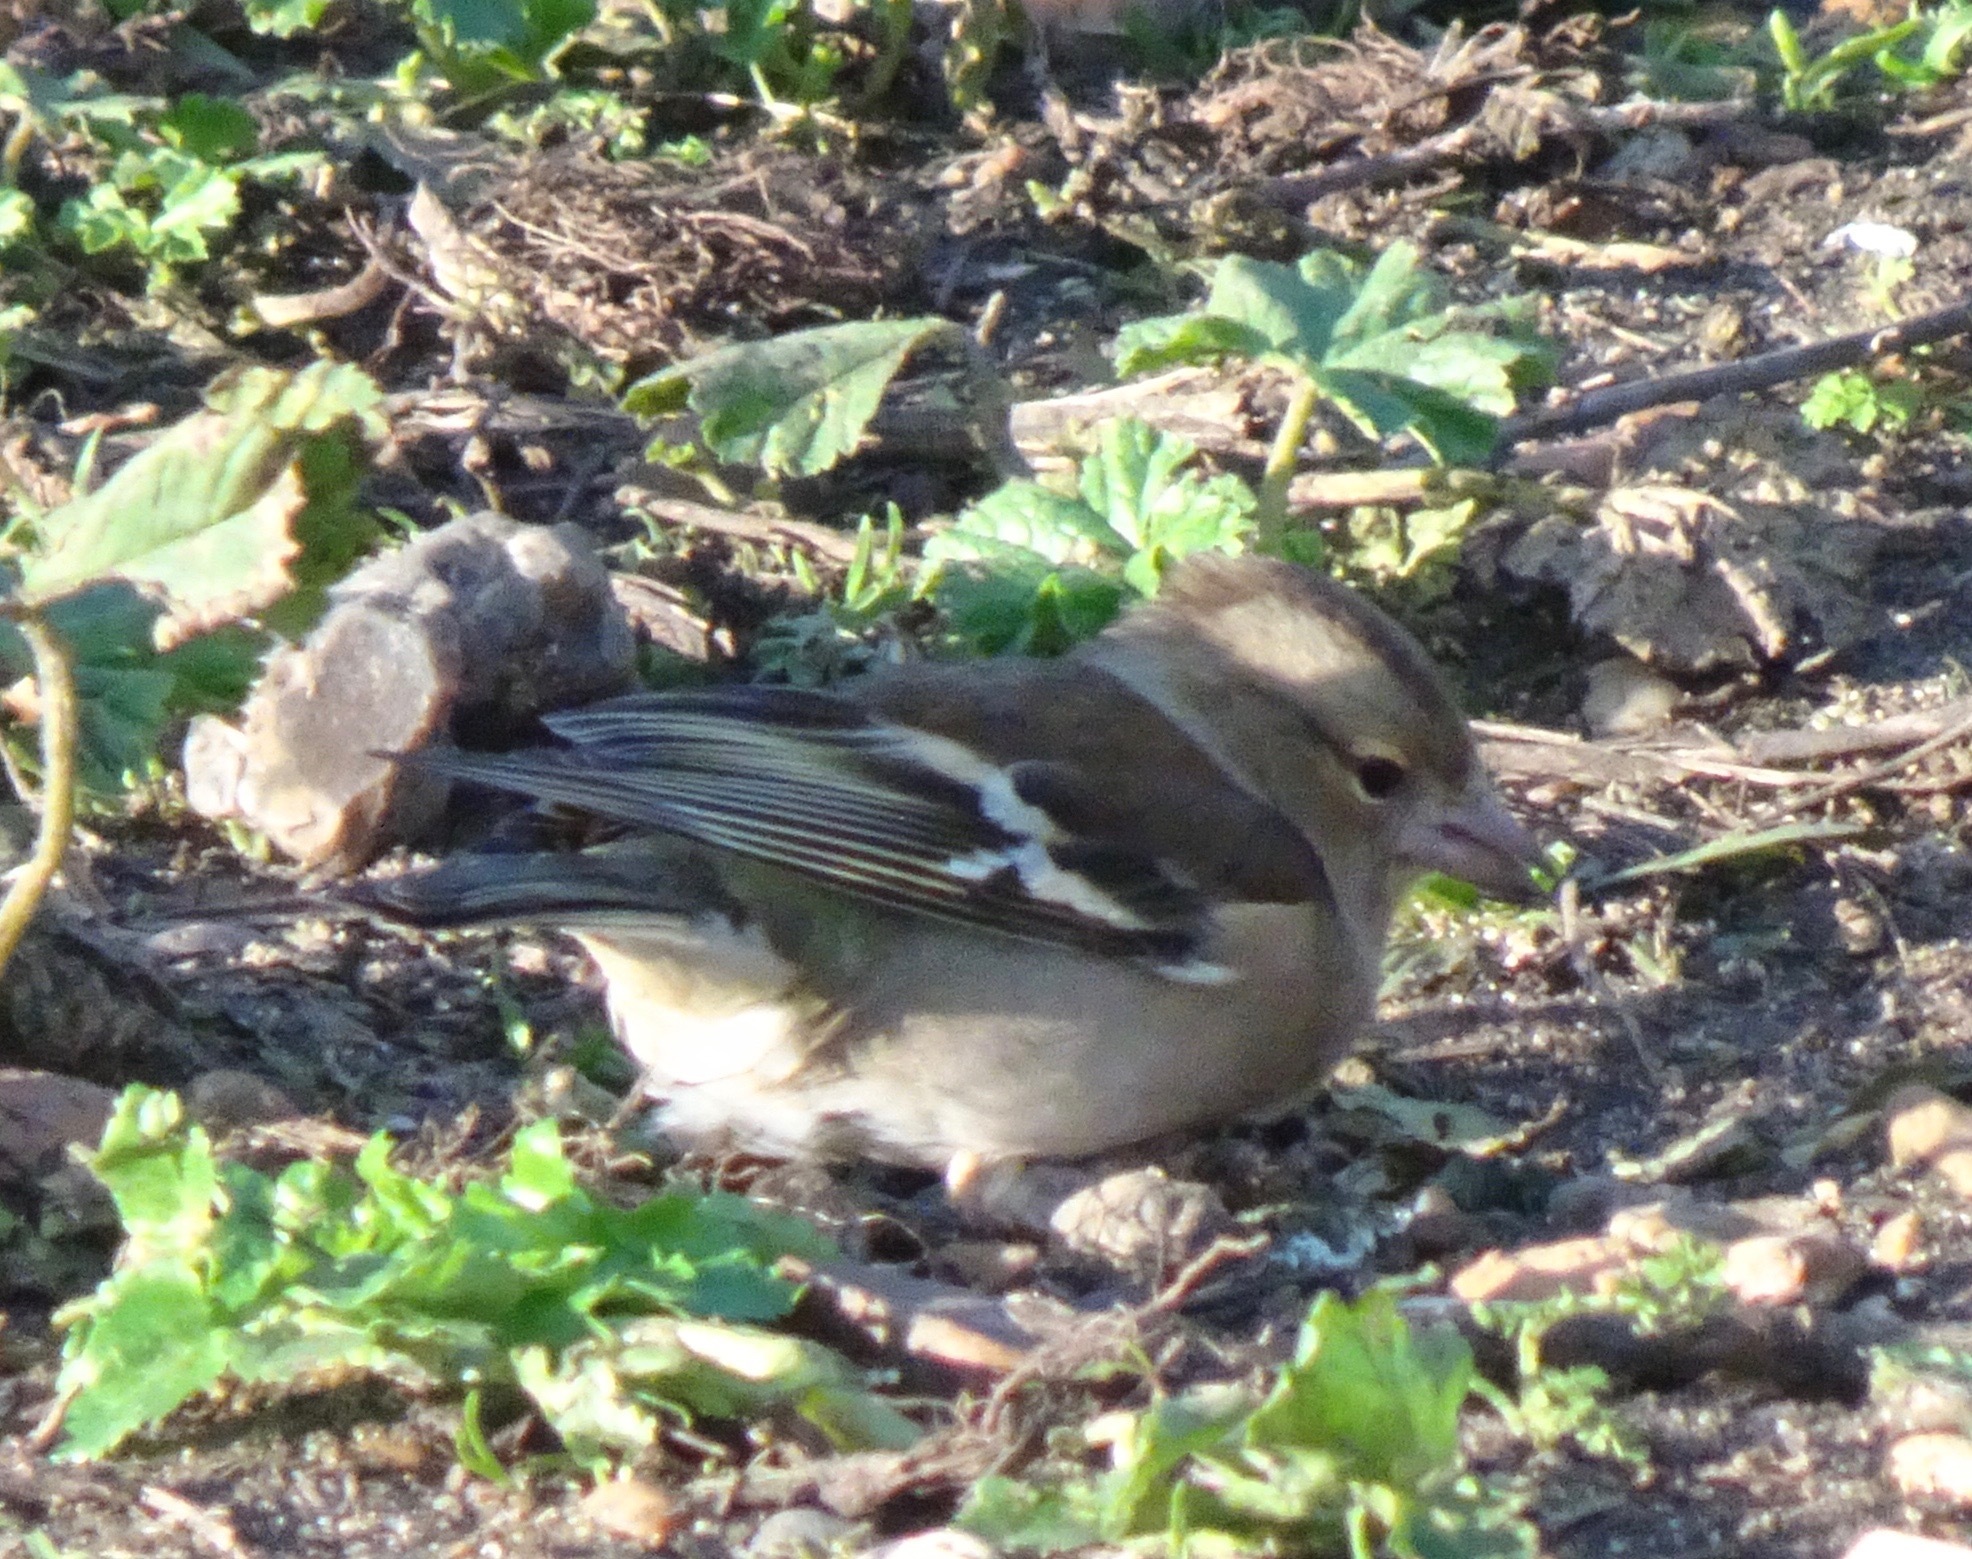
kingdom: Animalia
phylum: Chordata
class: Aves
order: Passeriformes
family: Fringillidae
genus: Fringilla
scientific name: Fringilla coelebs
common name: Common chaffinch
